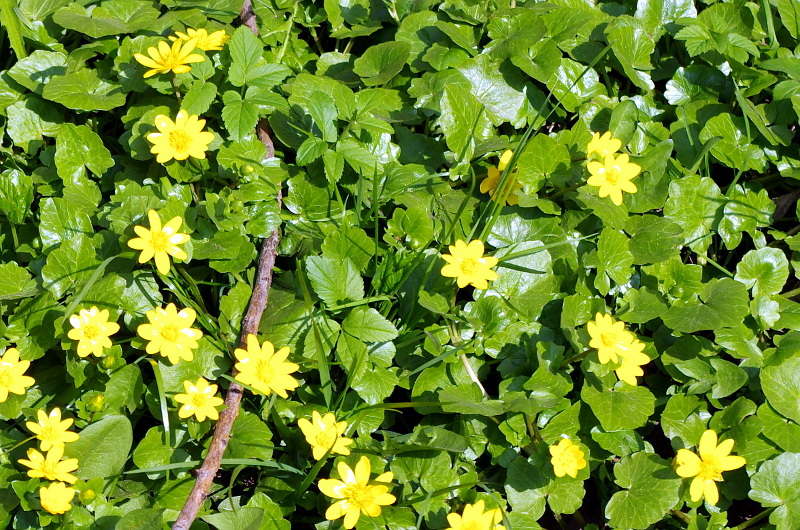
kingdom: Plantae
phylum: Tracheophyta
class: Magnoliopsida
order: Ranunculales
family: Ranunculaceae
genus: Ficaria
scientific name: Ficaria verna
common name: Lesser celandine
